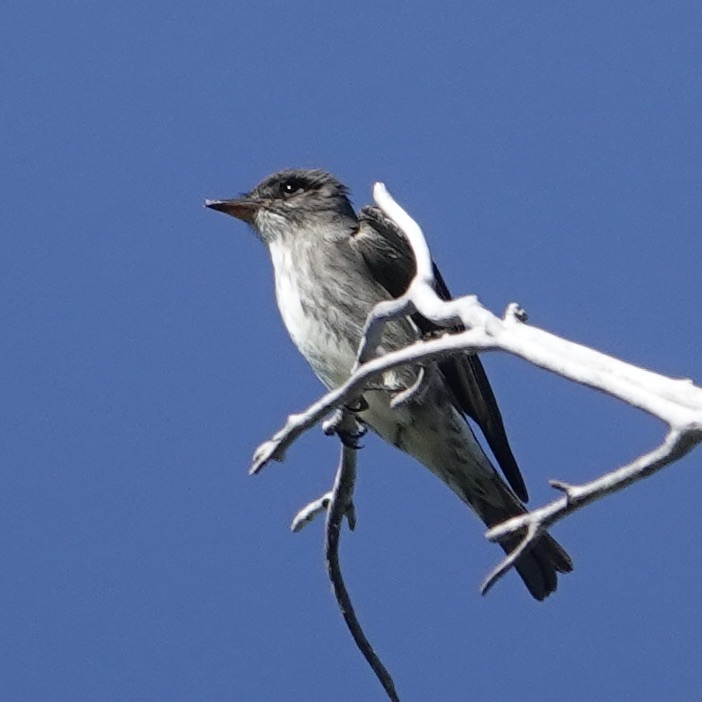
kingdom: Animalia
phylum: Chordata
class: Aves
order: Passeriformes
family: Tyrannidae
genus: Contopus
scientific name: Contopus cooperi
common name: Olive-sided flycatcher
